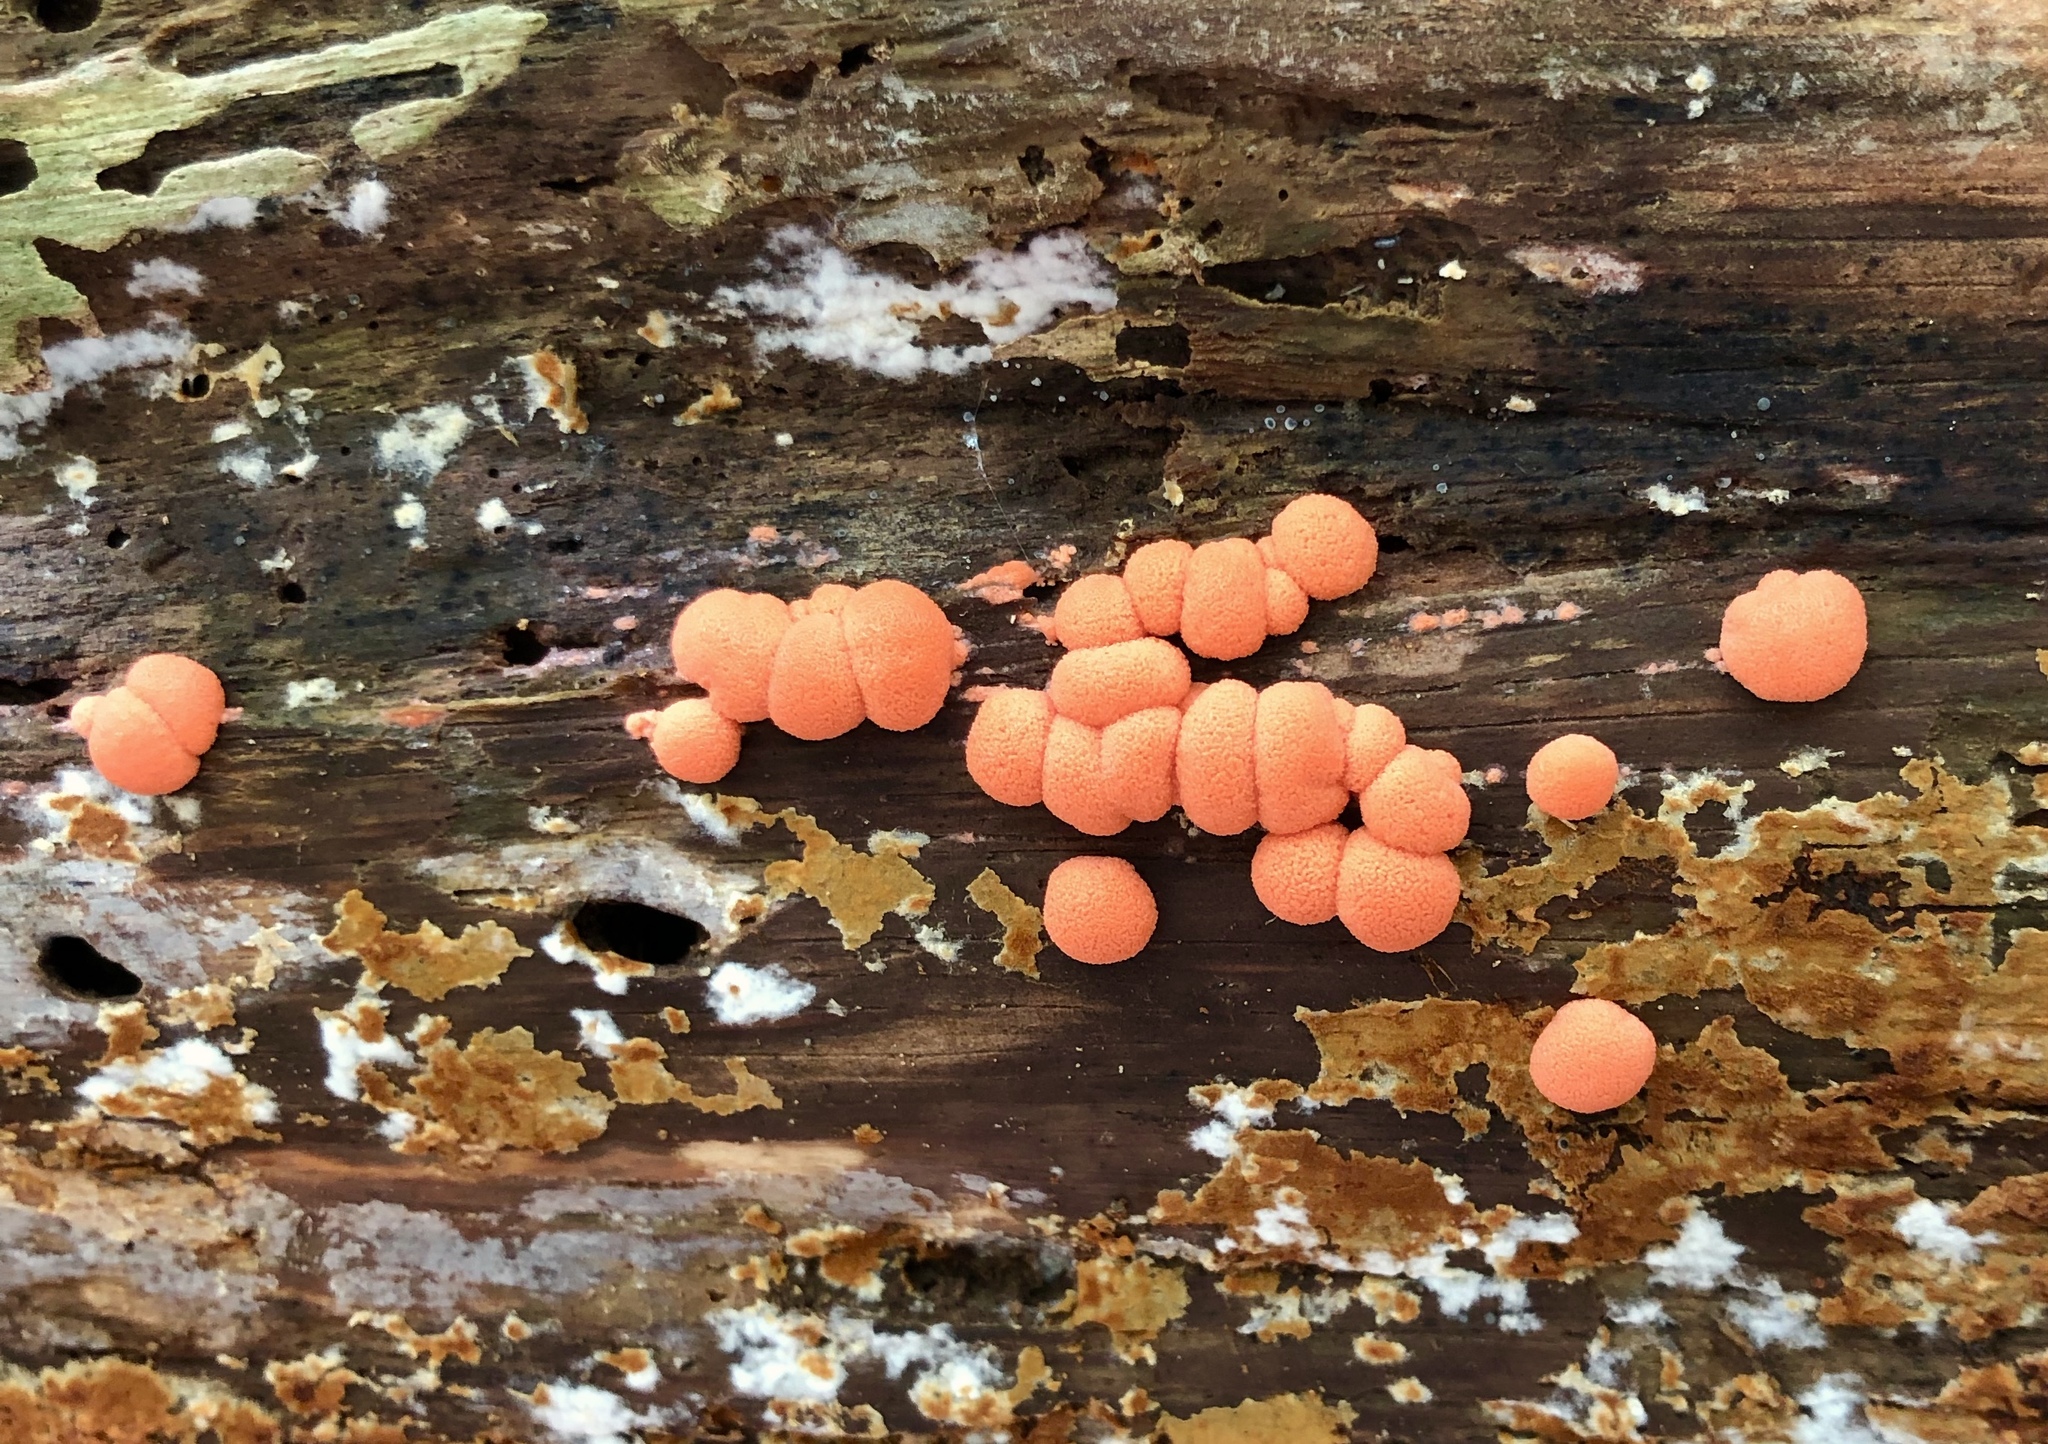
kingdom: Protozoa
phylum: Mycetozoa
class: Myxomycetes
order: Cribrariales
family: Tubiferaceae
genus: Lycogala
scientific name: Lycogala epidendrum
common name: Wolf's milk
